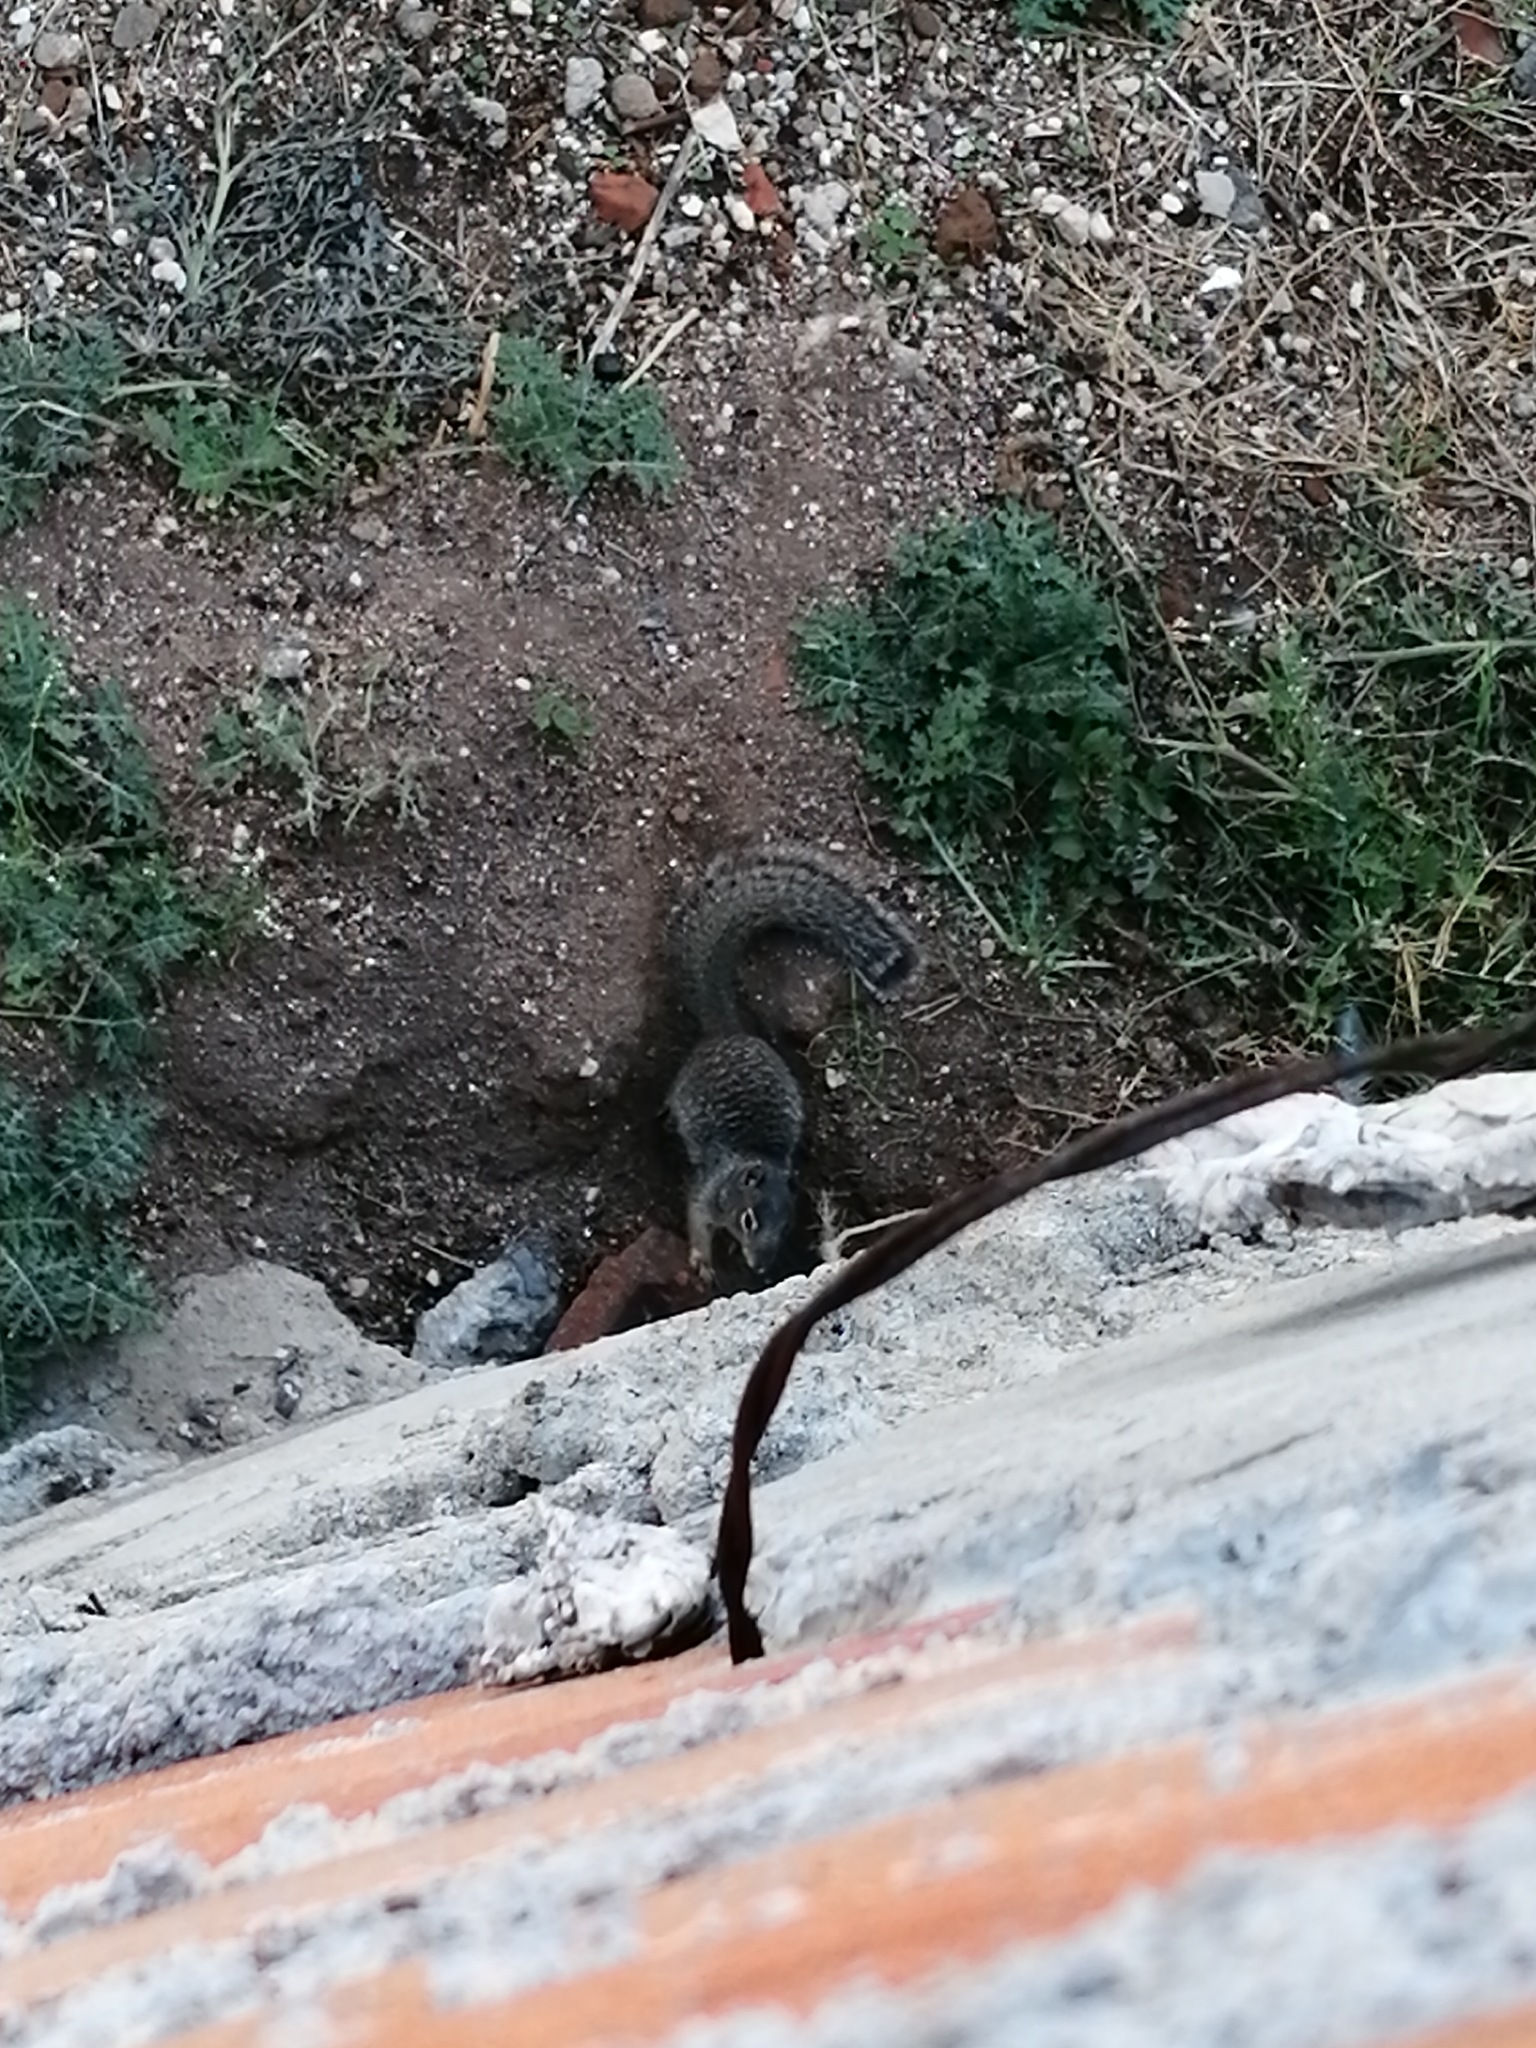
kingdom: Animalia
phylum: Chordata
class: Mammalia
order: Rodentia
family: Sciuridae
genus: Otospermophilus
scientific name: Otospermophilus variegatus
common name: Rock squirrel
